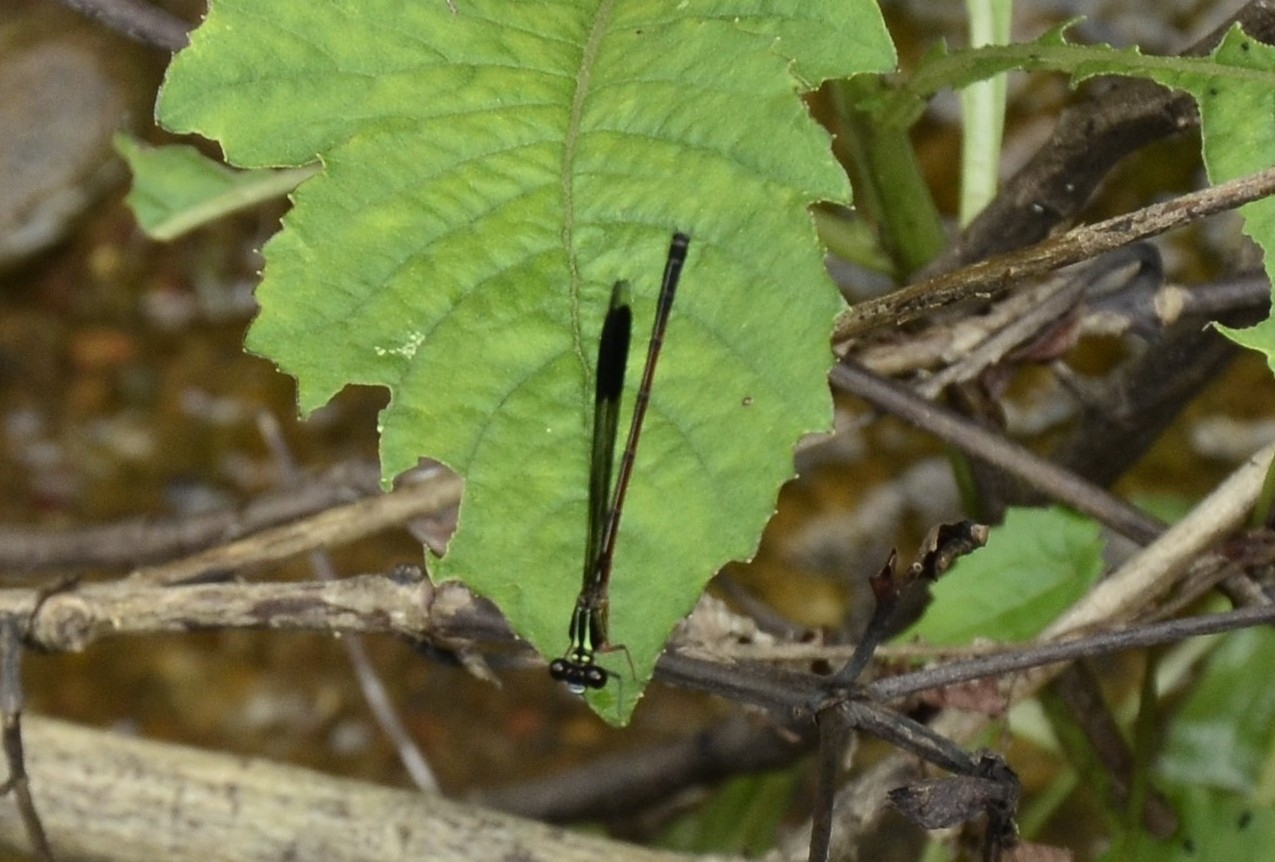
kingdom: Animalia
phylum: Arthropoda
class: Insecta
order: Odonata
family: Euphaeidae
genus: Euphaea
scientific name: Euphaea fraseri
